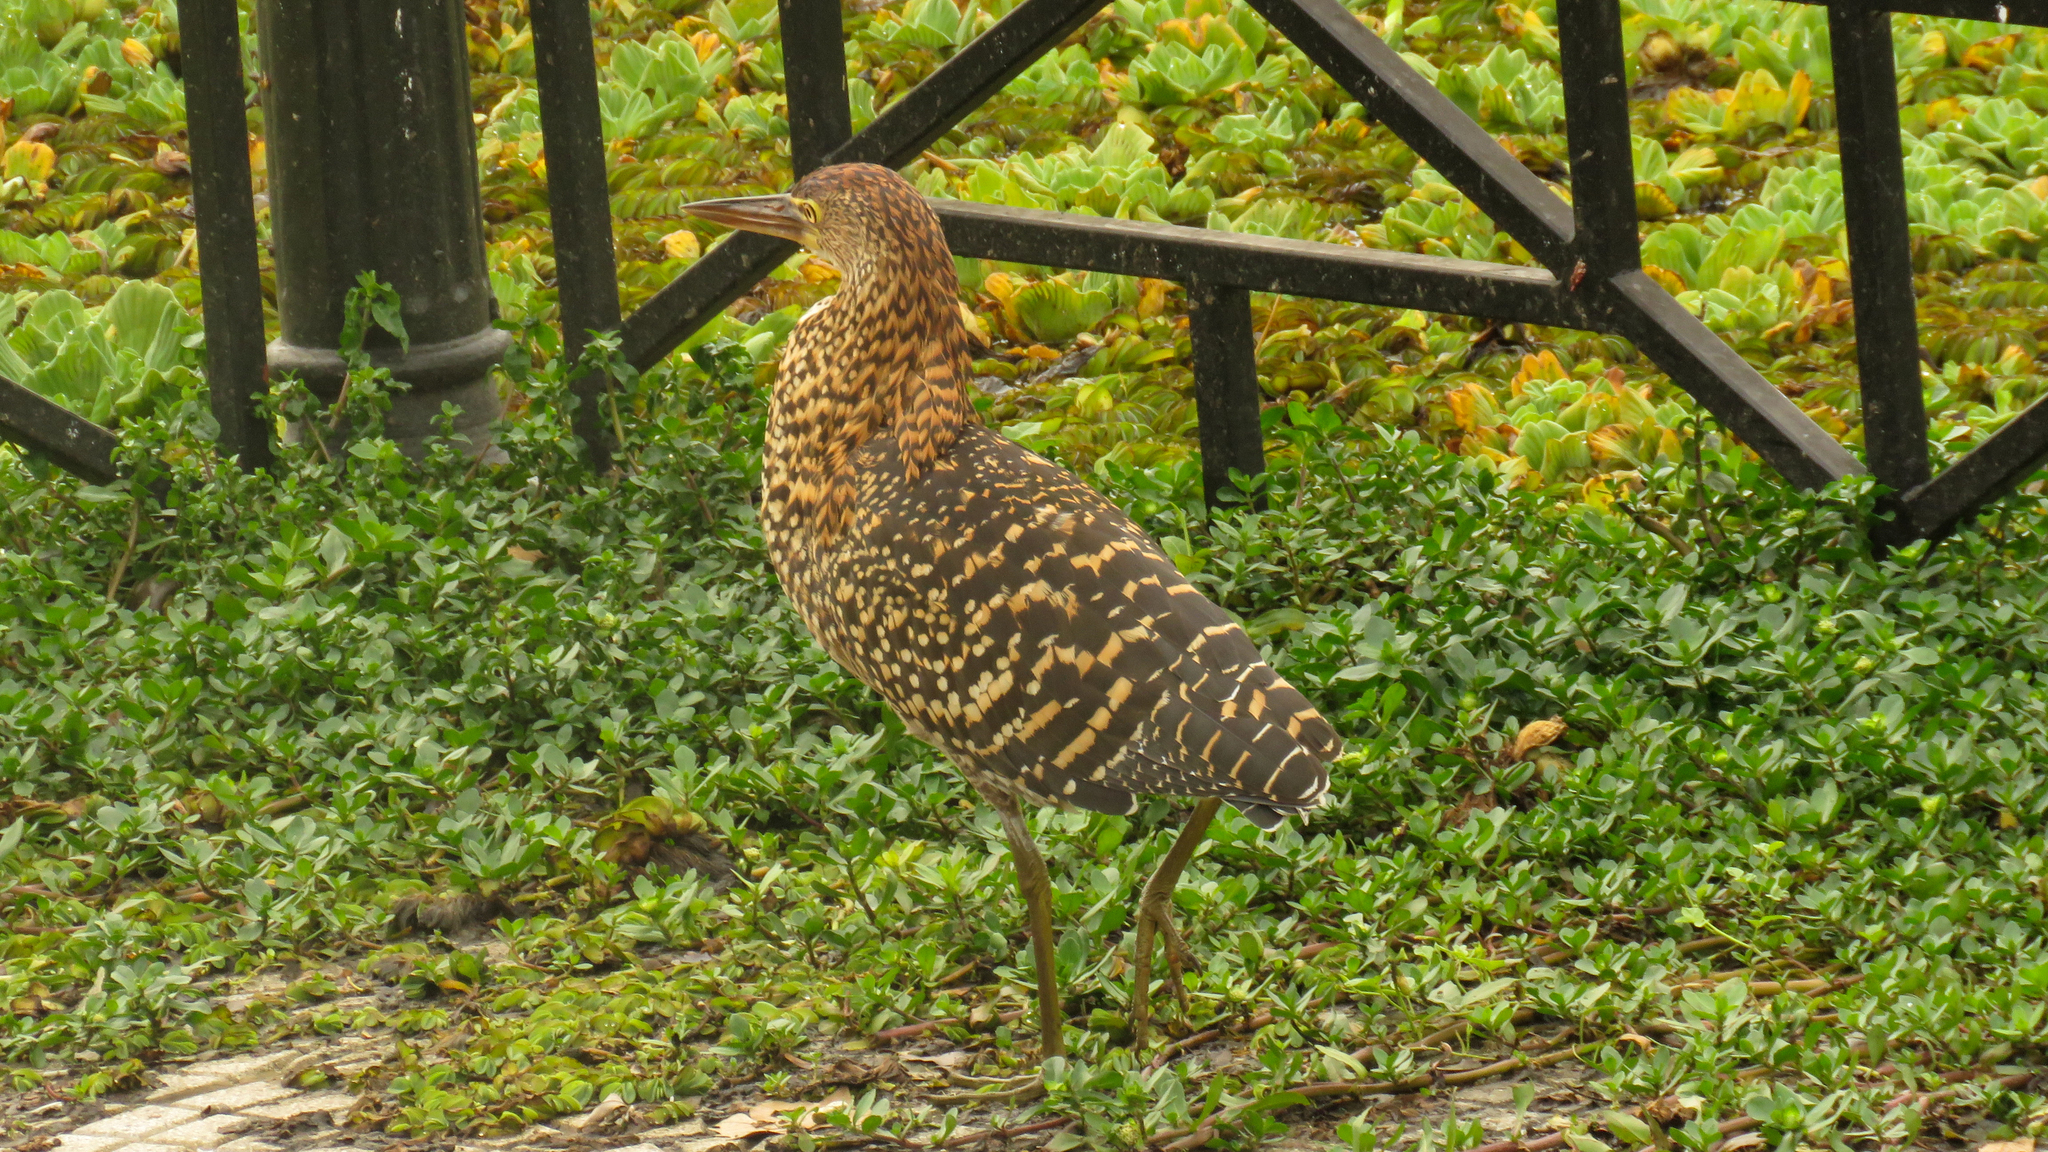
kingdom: Animalia
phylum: Chordata
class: Aves
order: Pelecaniformes
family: Ardeidae
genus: Tigrisoma
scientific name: Tigrisoma lineatum
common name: Rufescent tiger-heron
